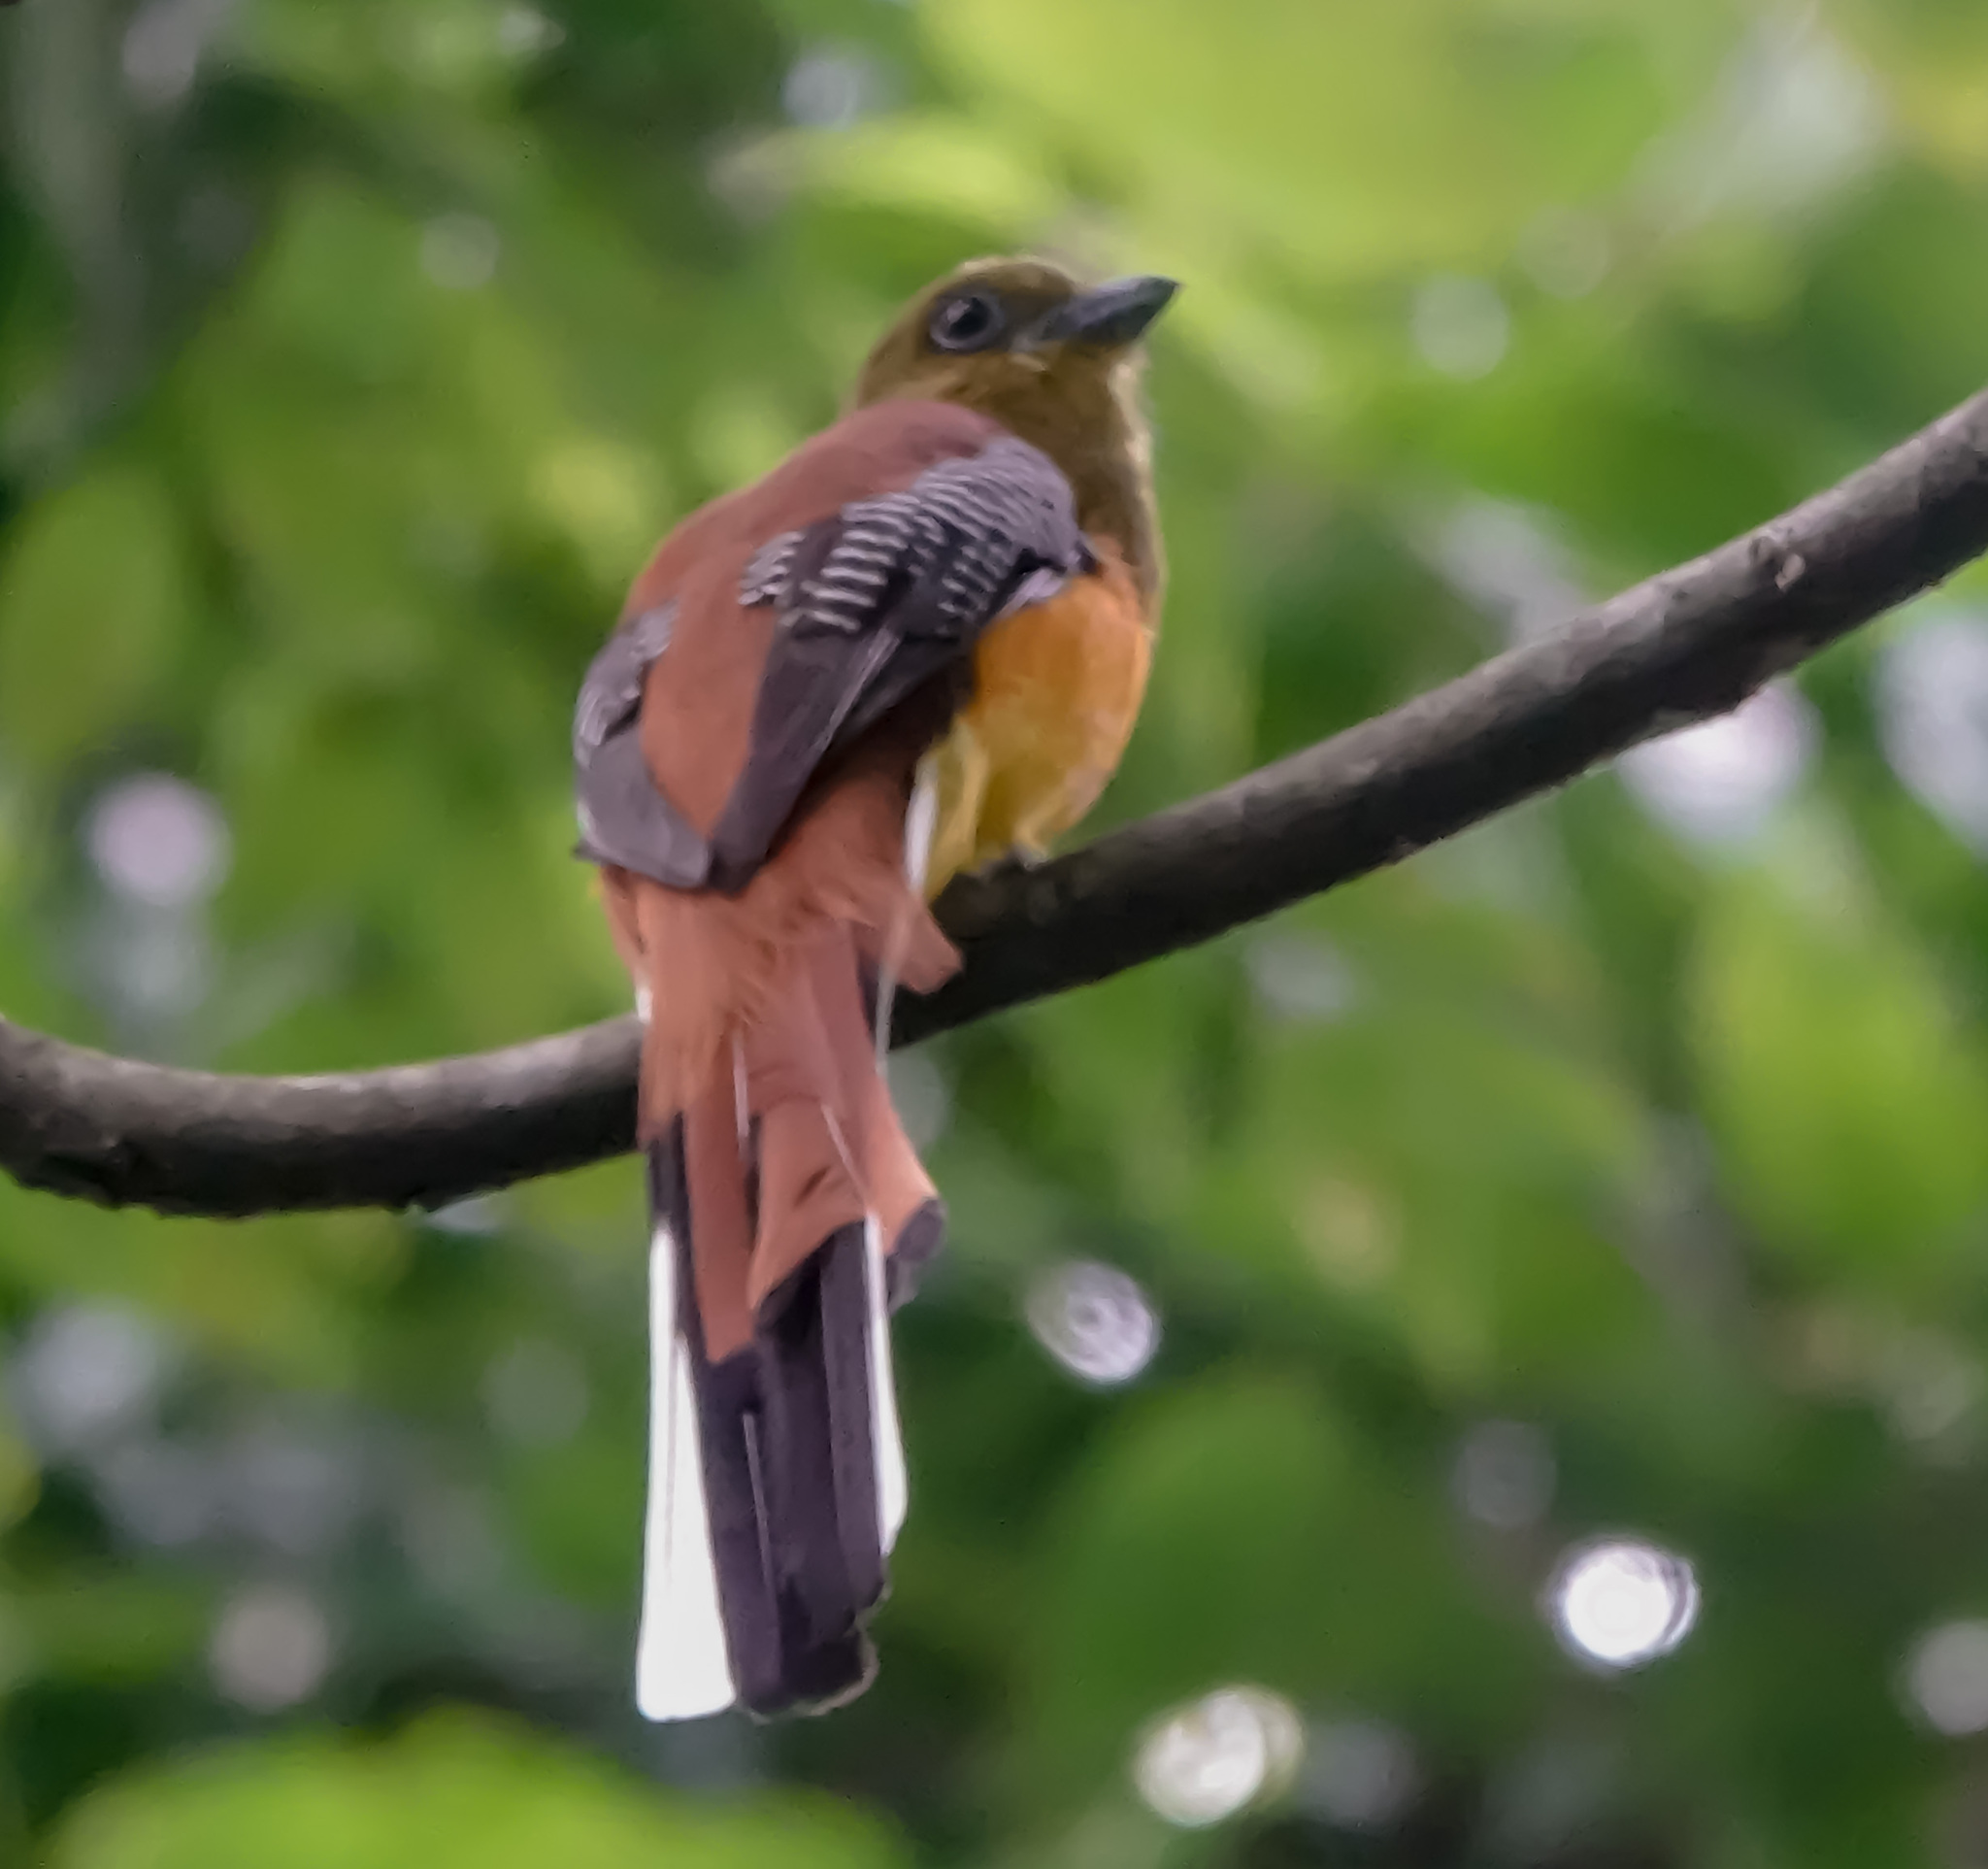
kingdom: Animalia
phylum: Chordata
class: Aves
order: Trogoniformes
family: Trogonidae
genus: Harpactes
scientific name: Harpactes oreskios
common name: Orange-breasted trogon
